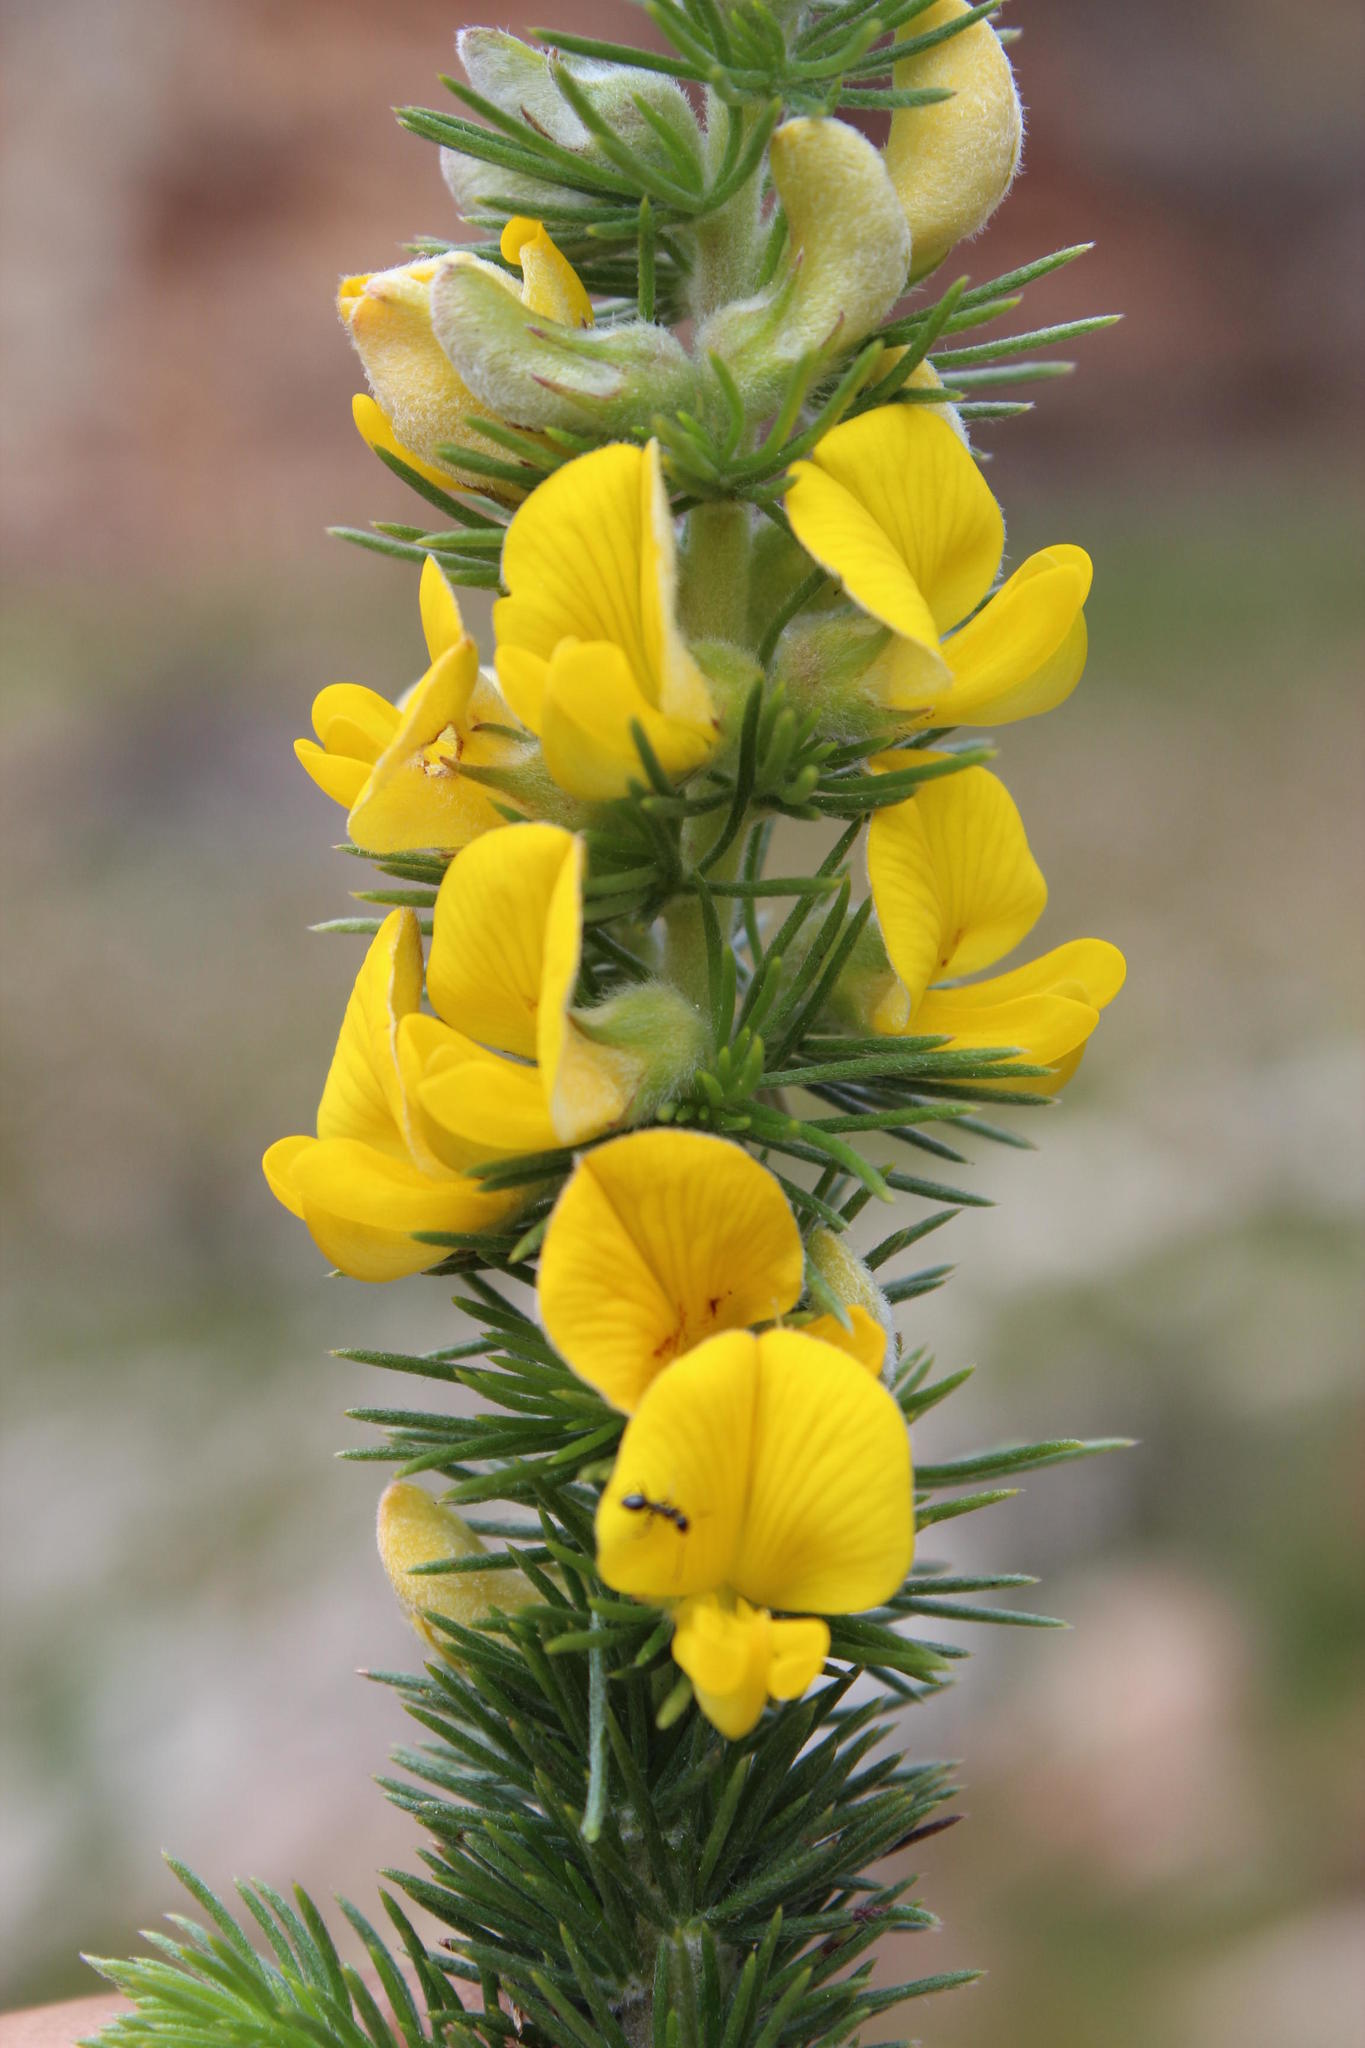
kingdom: Plantae
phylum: Tracheophyta
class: Magnoliopsida
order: Fabales
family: Fabaceae
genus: Aspalathus
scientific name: Aspalathus laricifolia
